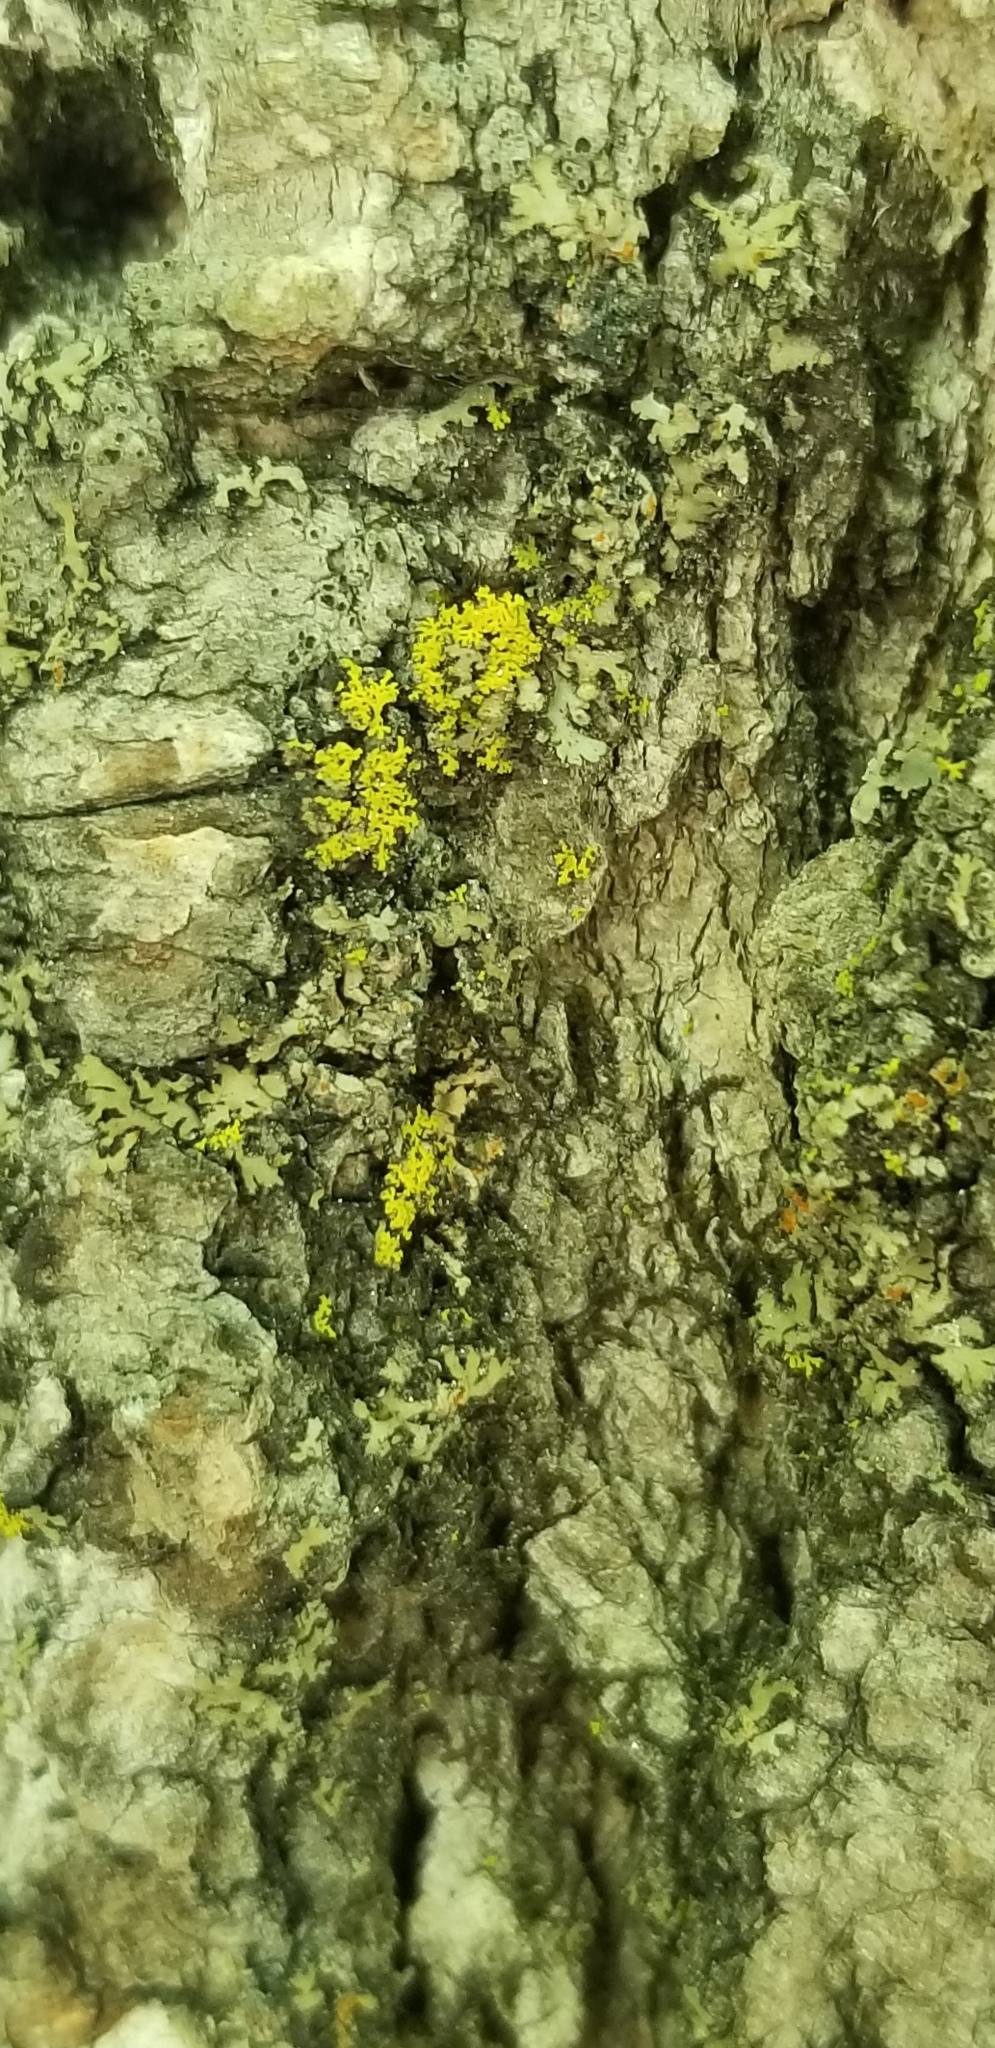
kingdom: Fungi
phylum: Ascomycota
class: Candelariomycetes
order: Candelariales
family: Candelariaceae
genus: Candelaria
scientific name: Candelaria concolor
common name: Candleflame lichen
